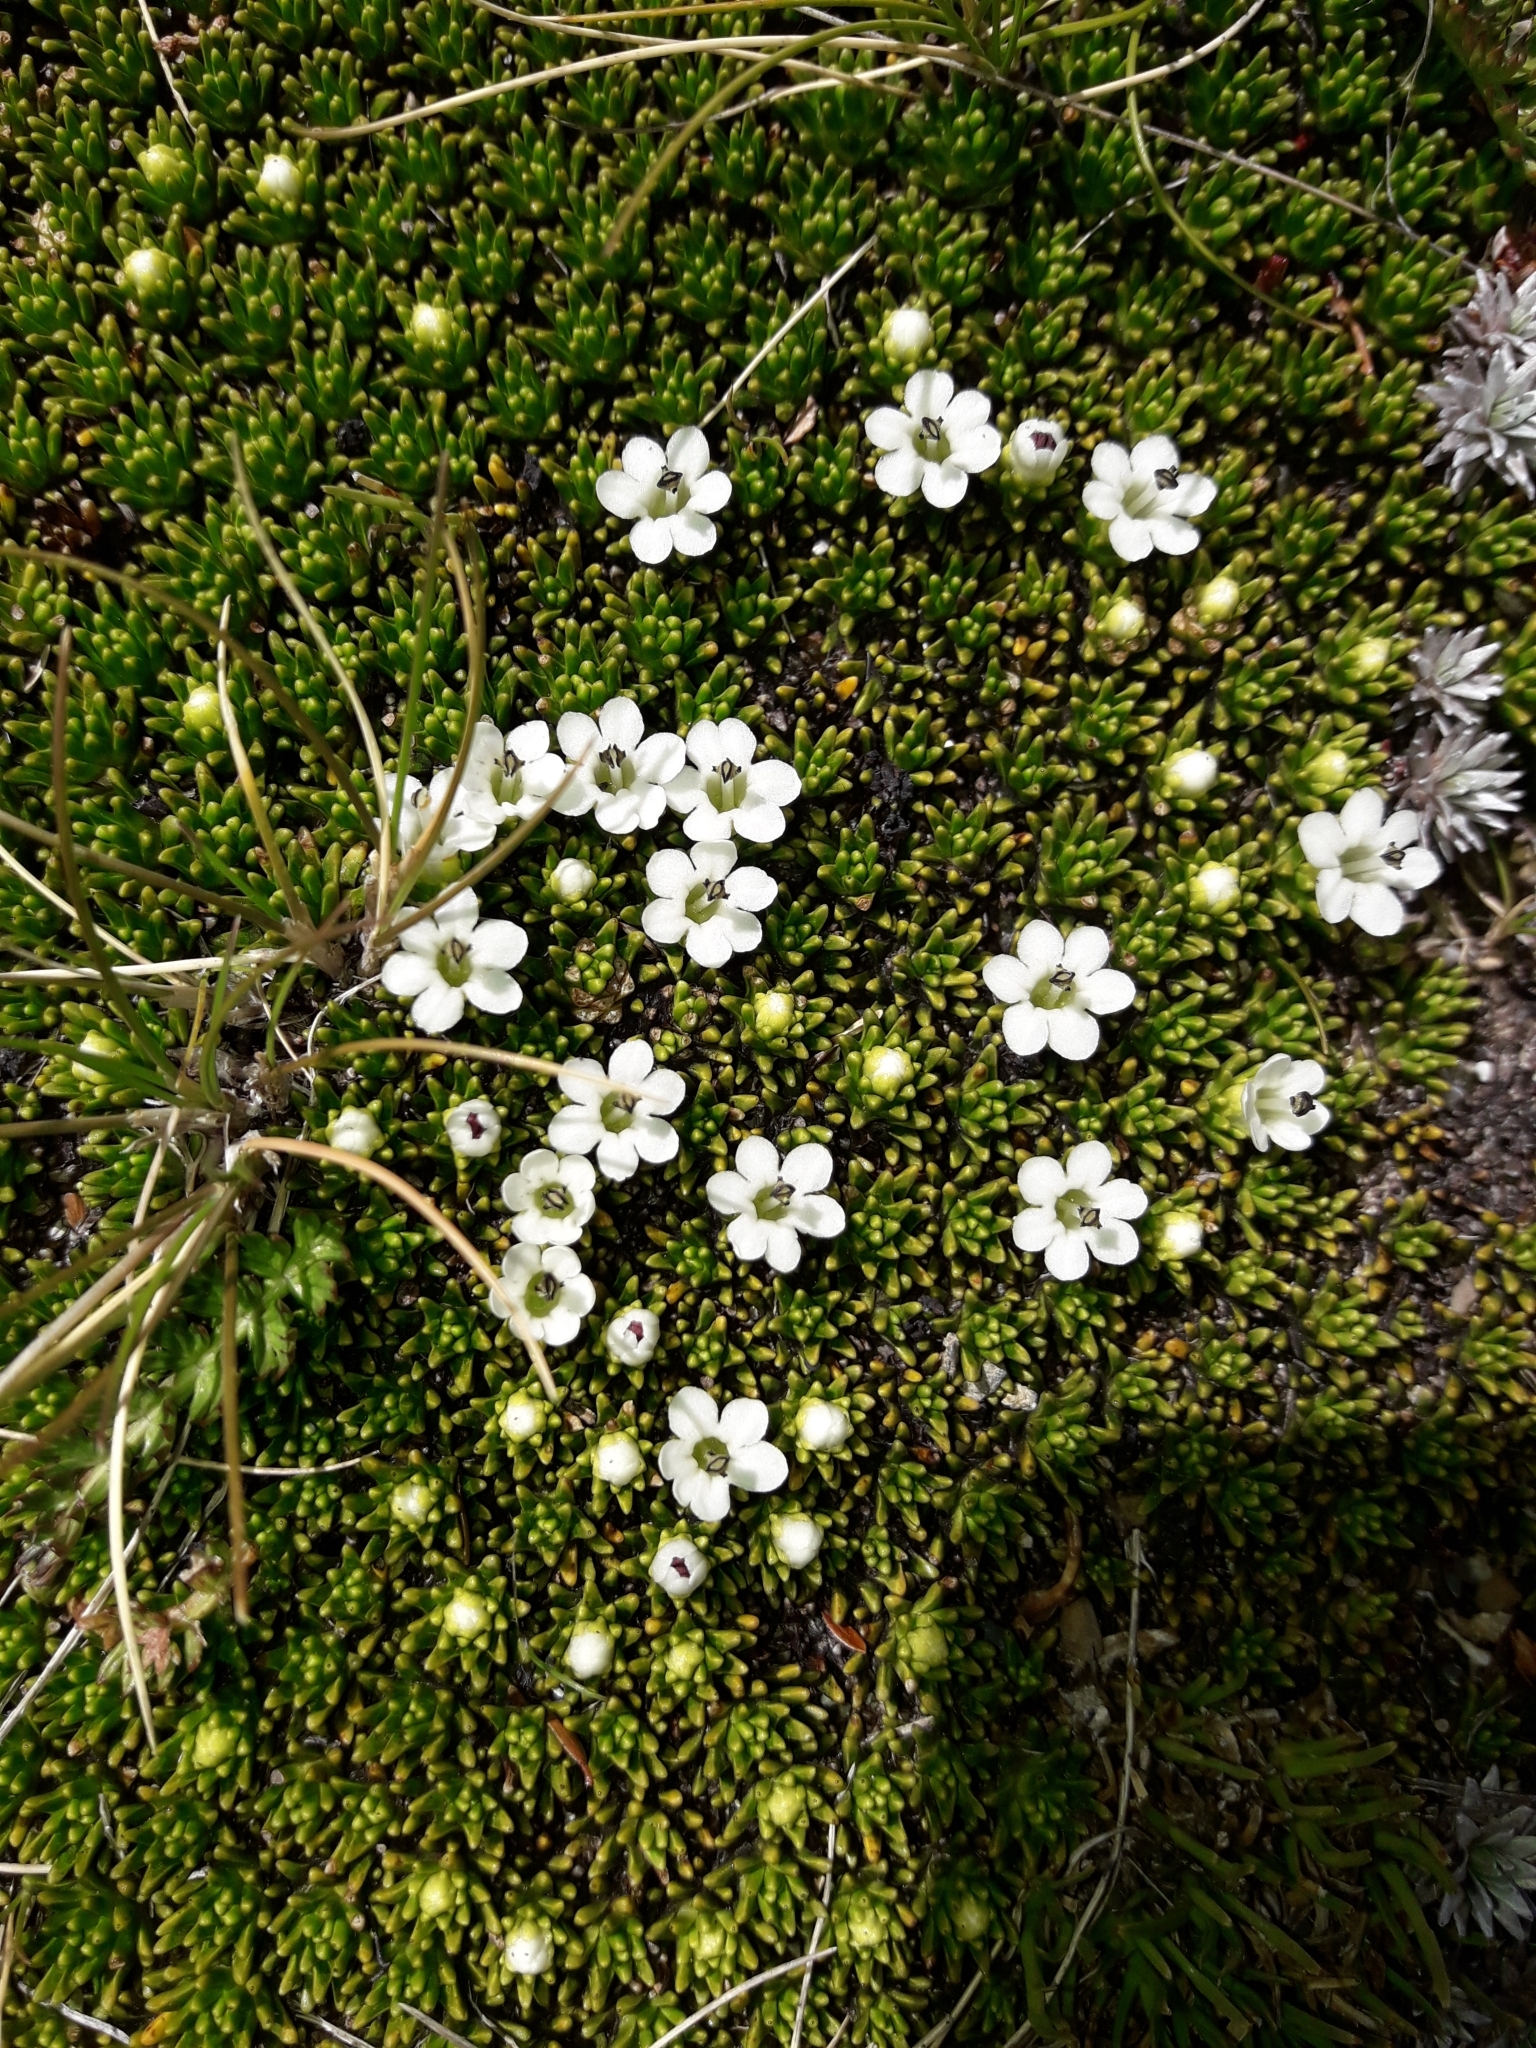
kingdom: Plantae
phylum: Tracheophyta
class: Magnoliopsida
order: Asterales
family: Stylidiaceae
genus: Phyllachne
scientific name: Phyllachne colensoi
